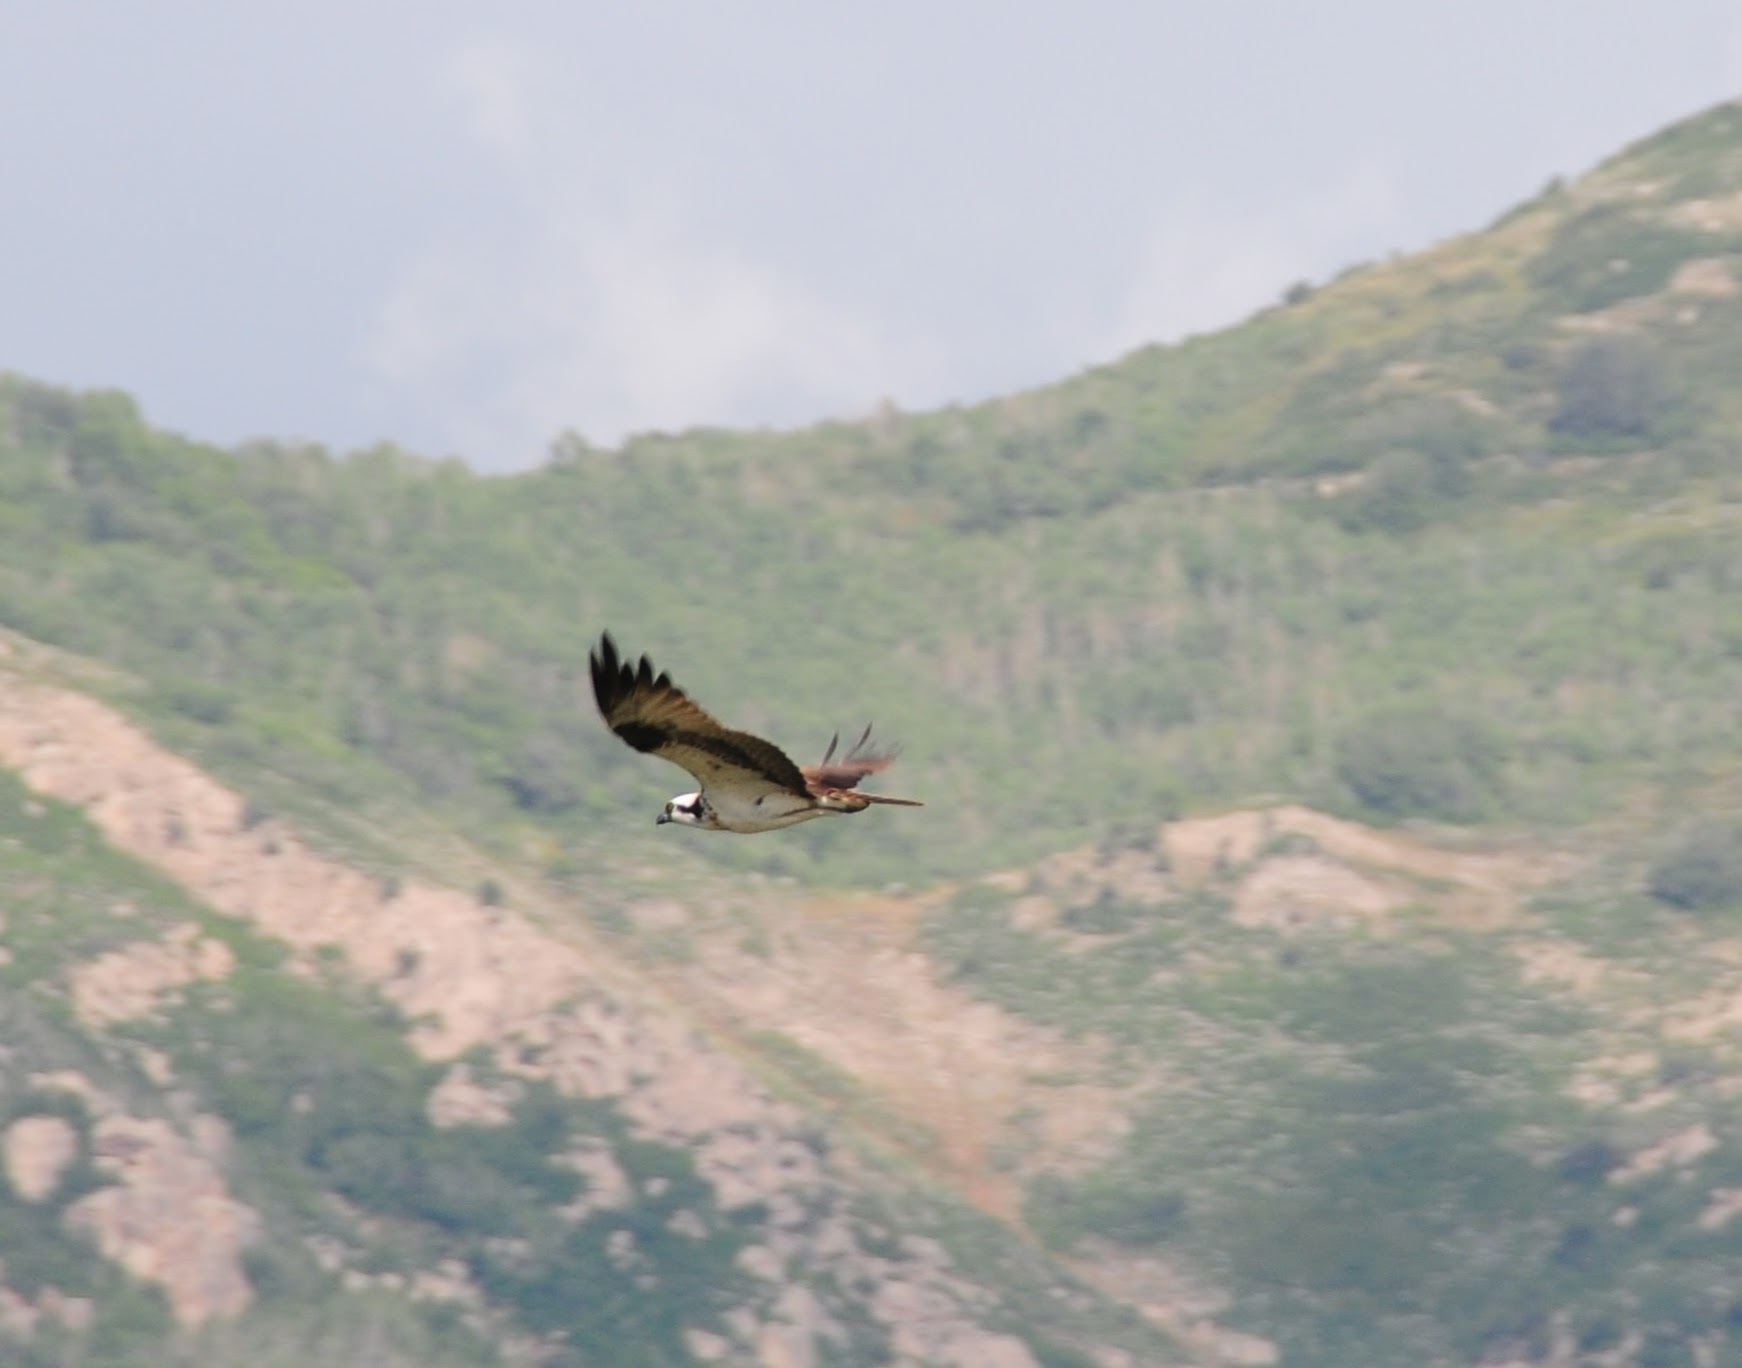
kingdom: Animalia
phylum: Chordata
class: Aves
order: Accipitriformes
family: Pandionidae
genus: Pandion
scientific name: Pandion haliaetus
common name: Osprey
